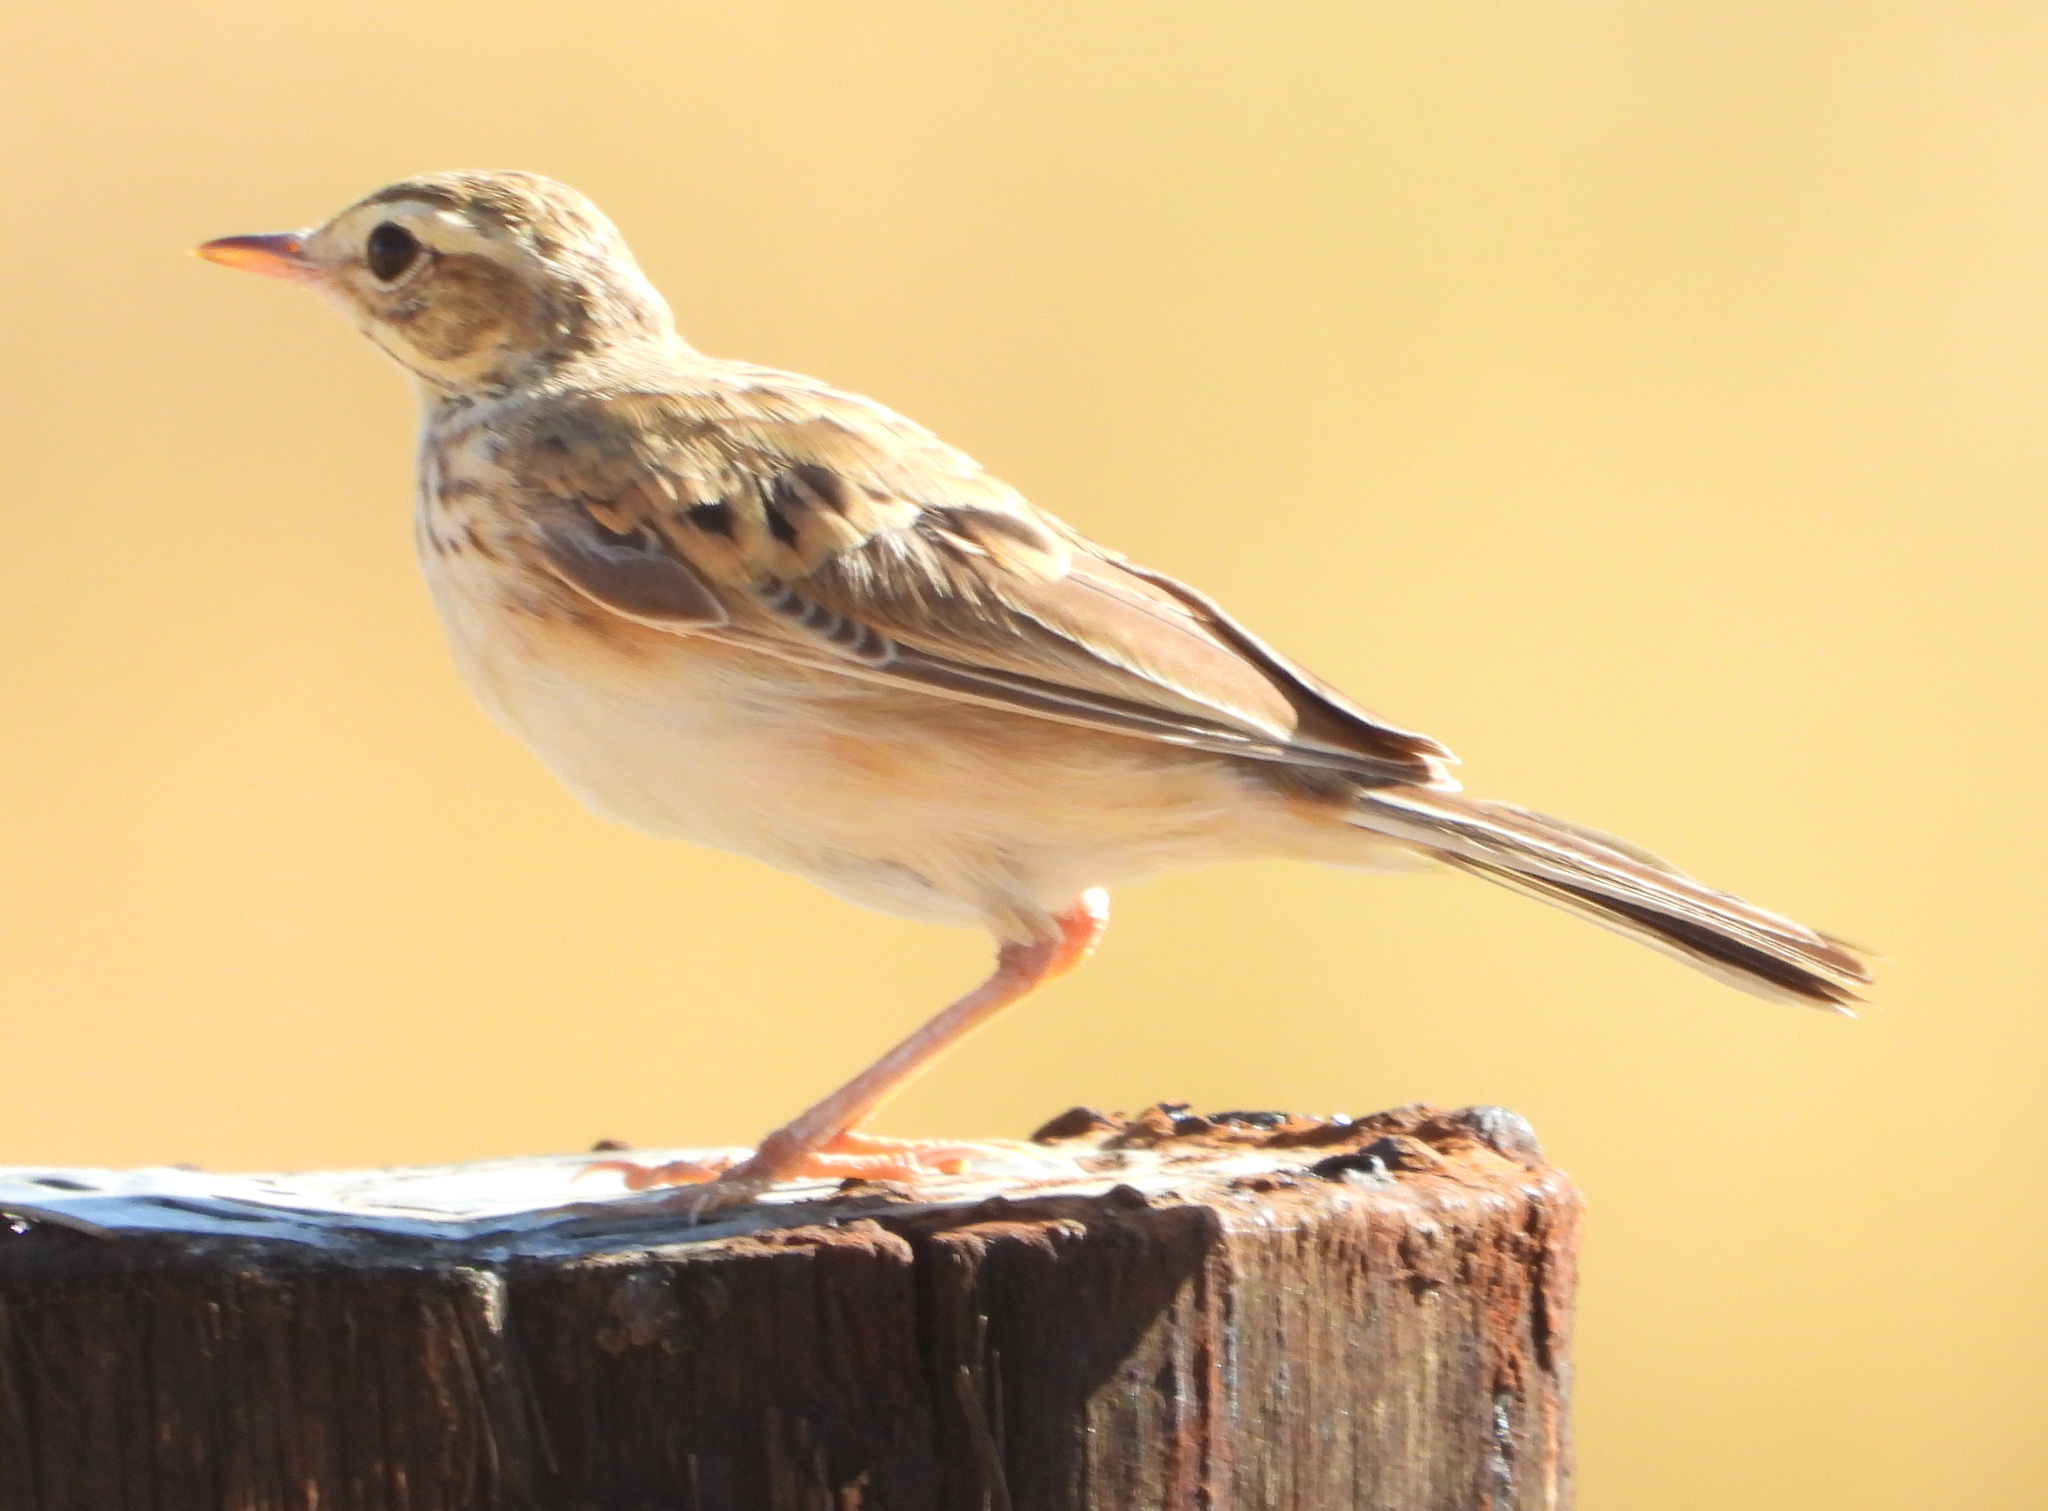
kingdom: Animalia
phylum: Chordata
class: Aves
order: Passeriformes
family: Motacillidae
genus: Anthus
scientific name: Anthus cinnamomeus
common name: African pipit
